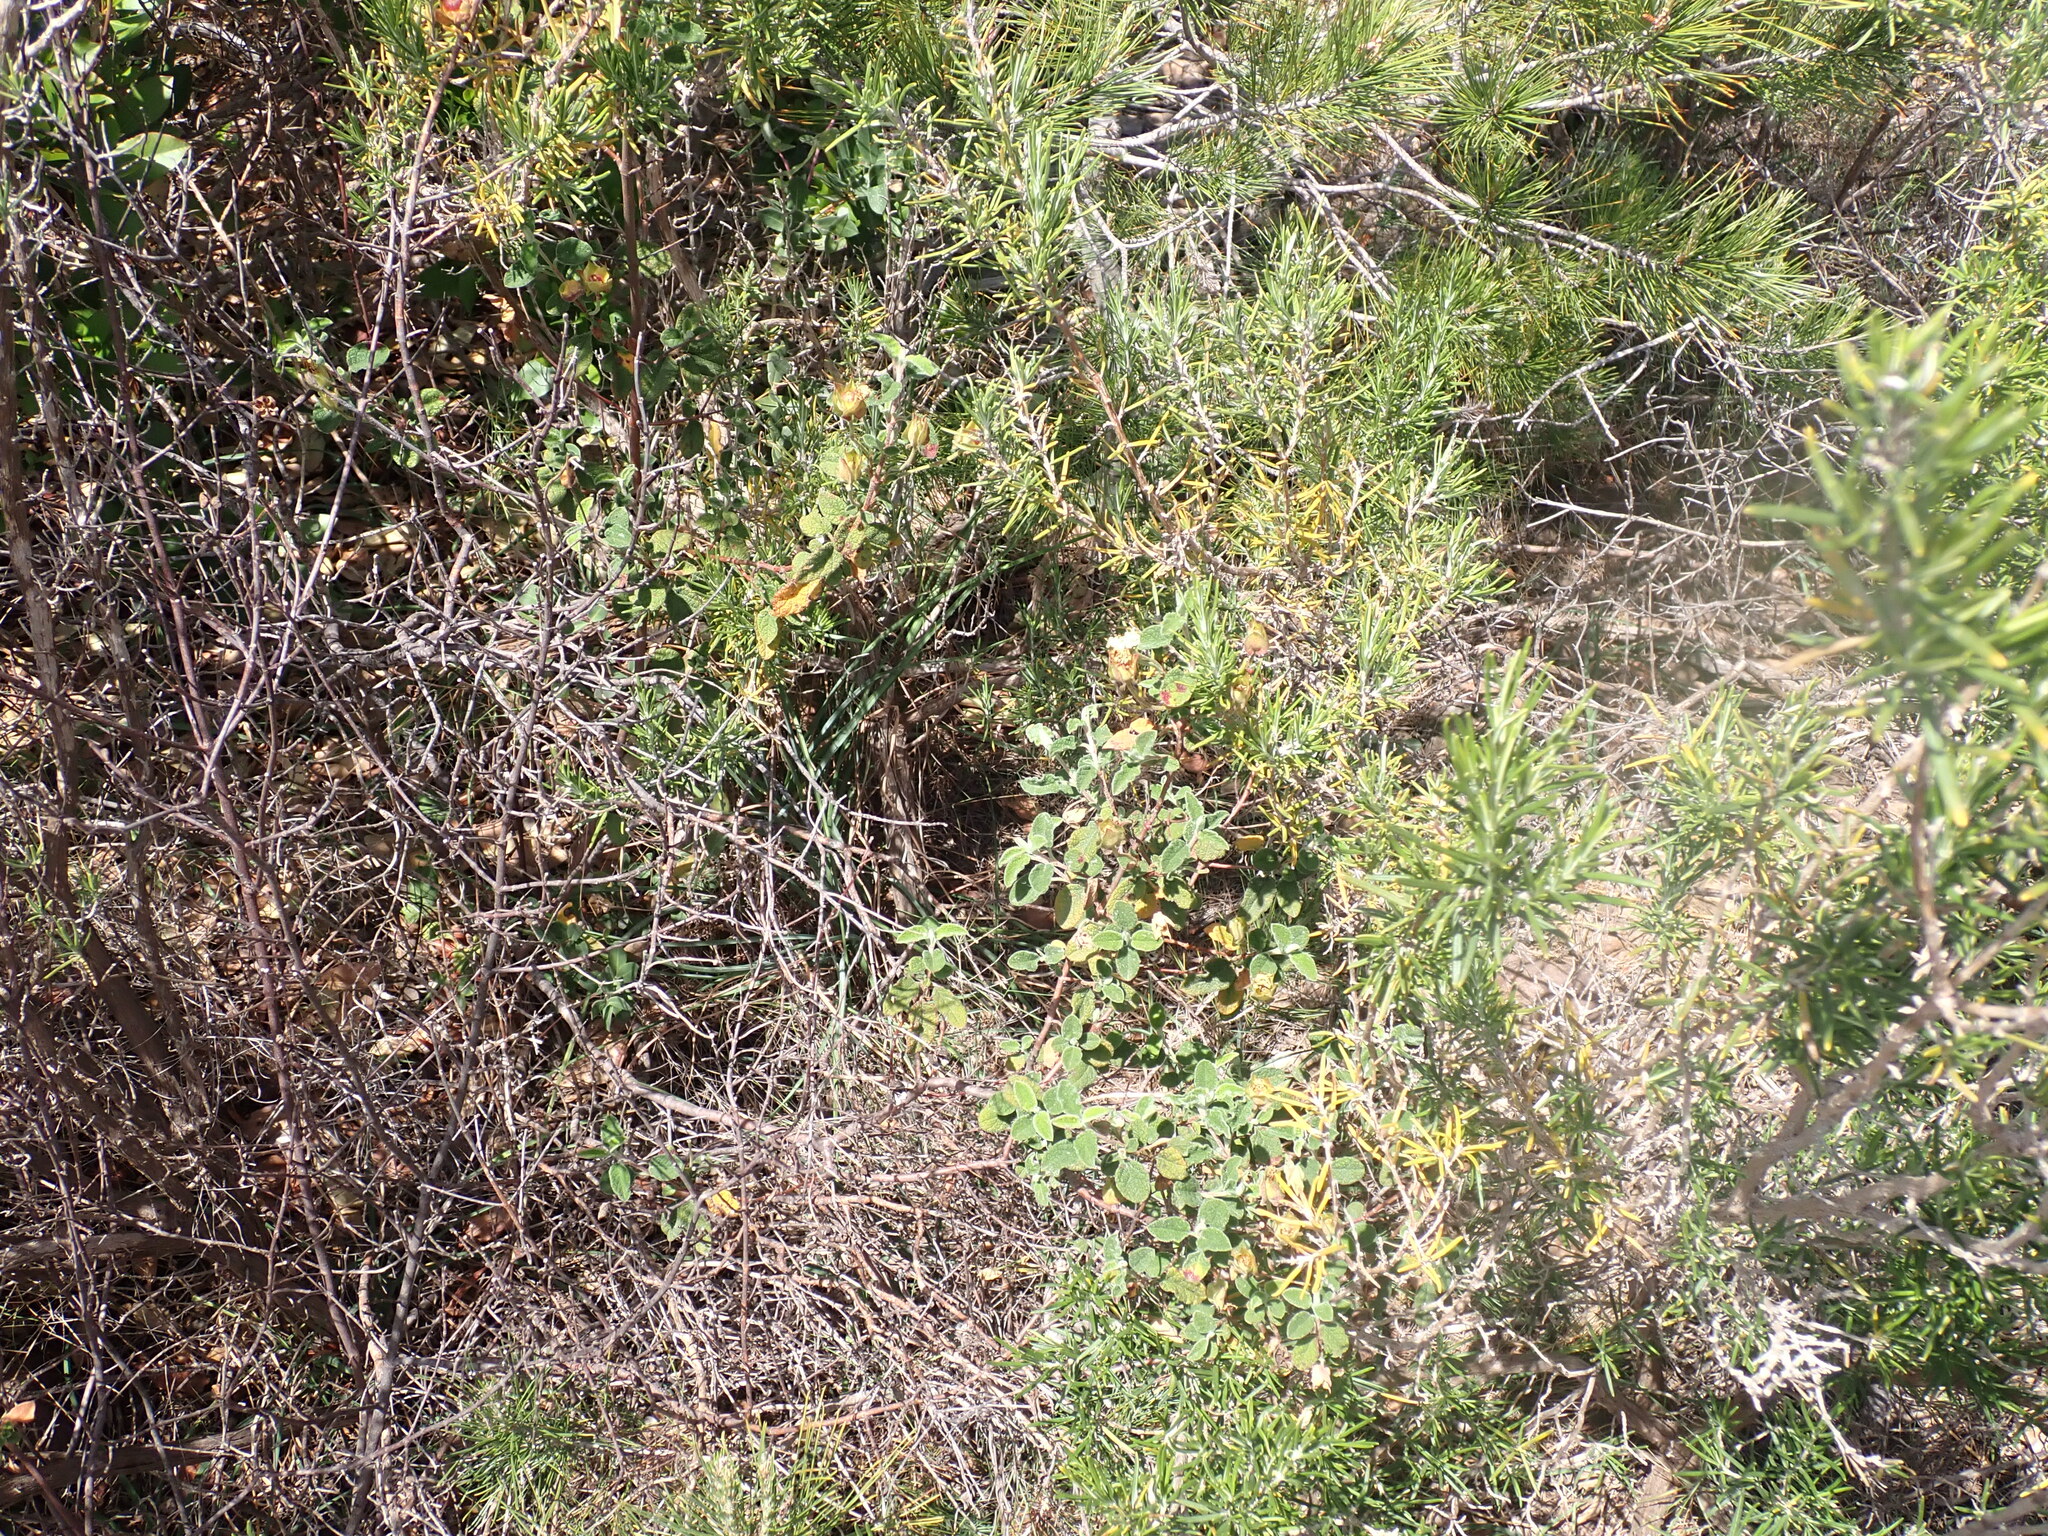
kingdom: Plantae
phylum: Tracheophyta
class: Magnoliopsida
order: Malvales
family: Cistaceae
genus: Cistus
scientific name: Cistus salviifolius
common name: Salvia cistus
